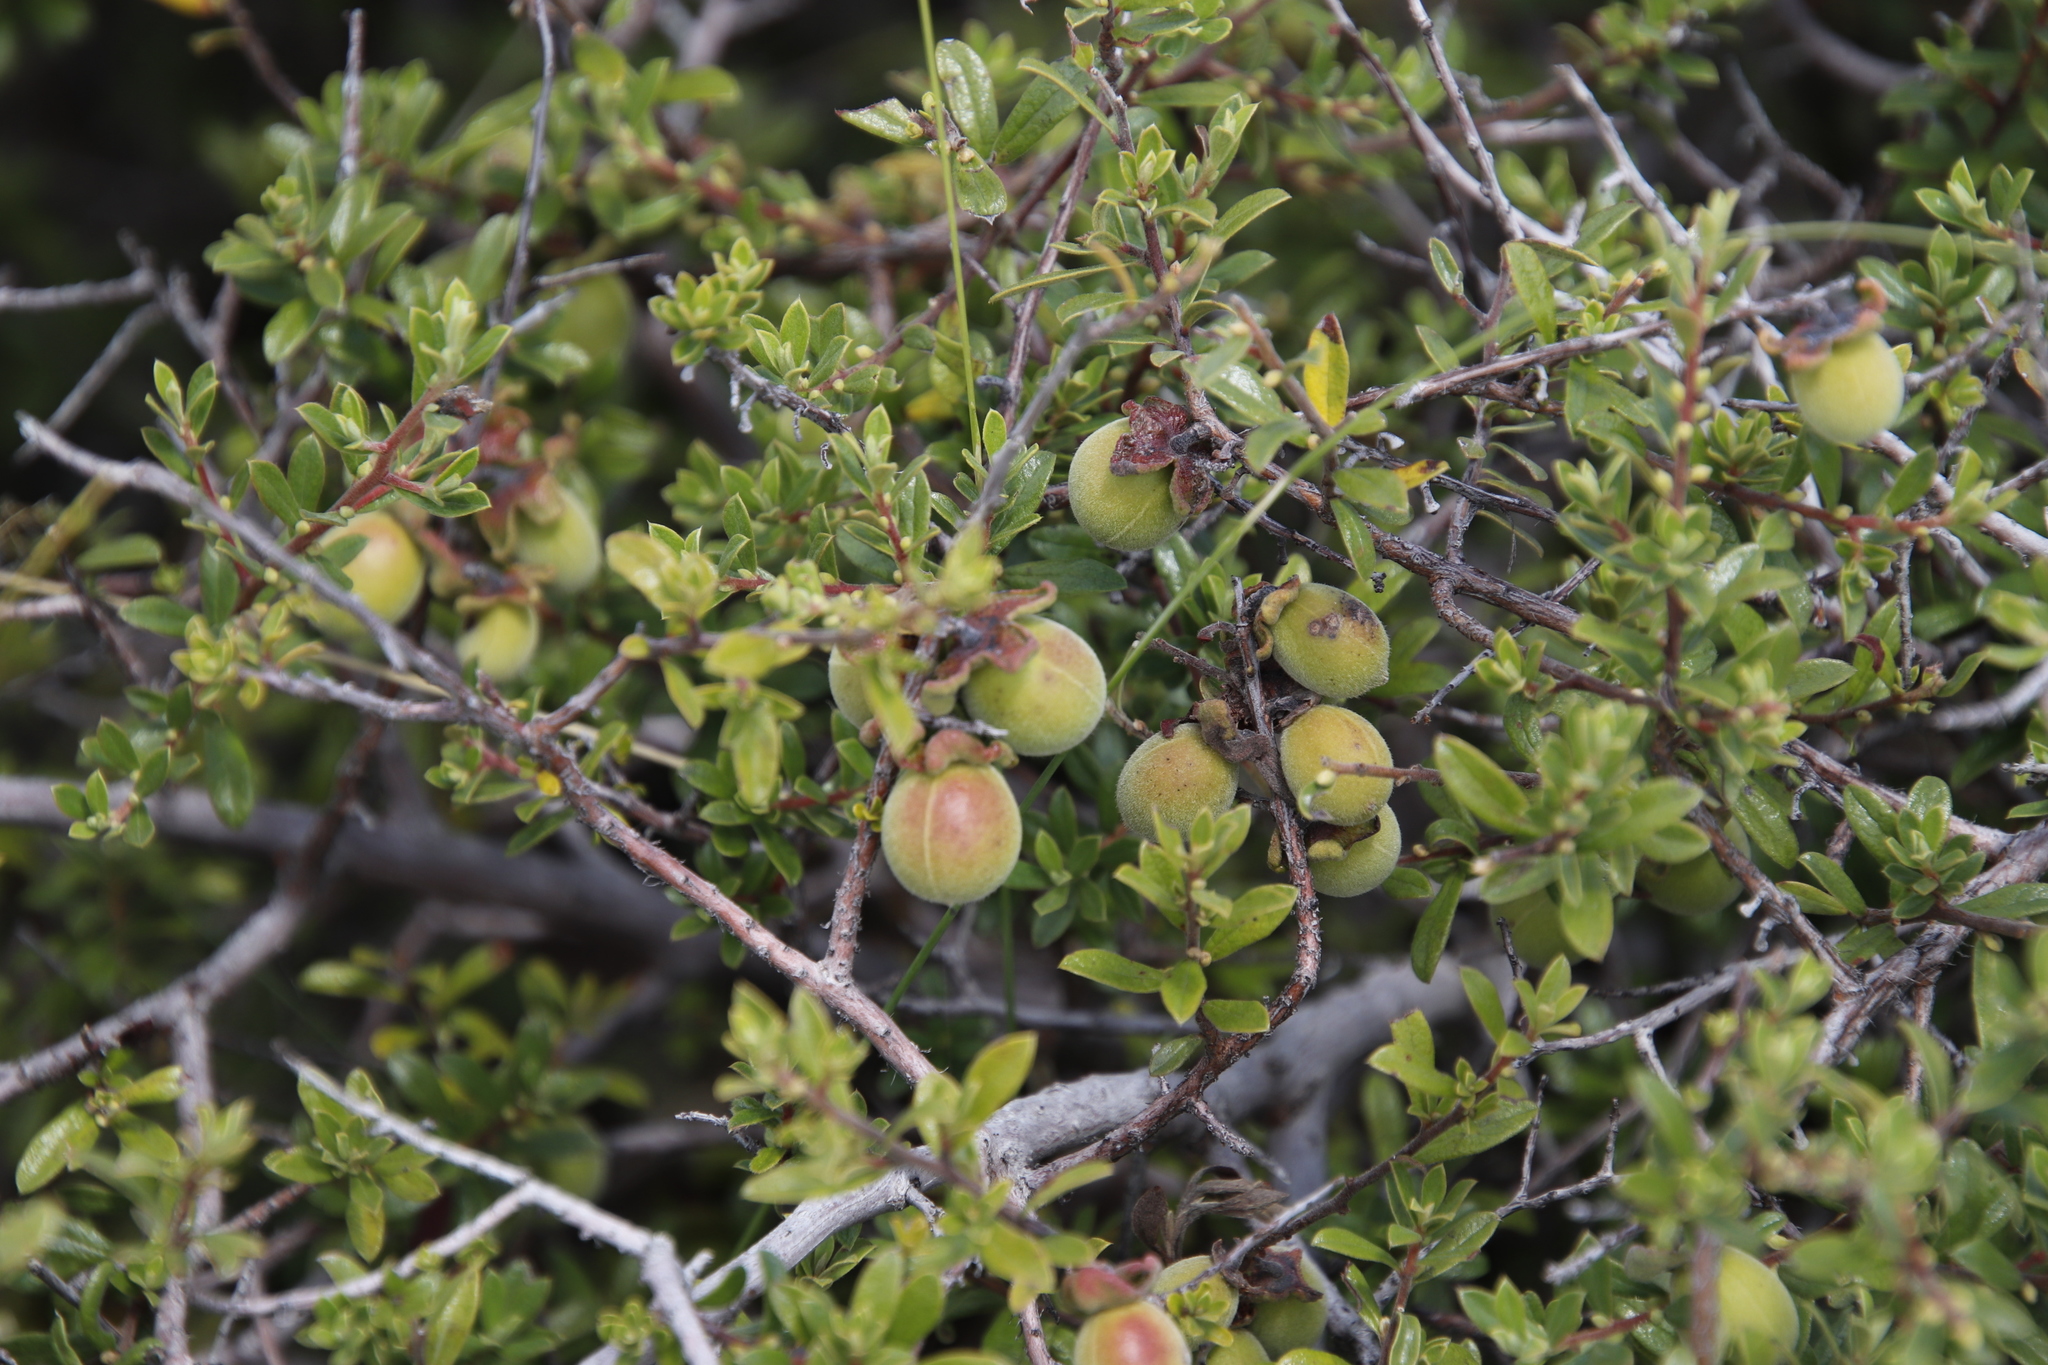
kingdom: Plantae
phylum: Tracheophyta
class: Magnoliopsida
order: Ericales
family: Ebenaceae
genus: Diospyros
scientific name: Diospyros pubescens
